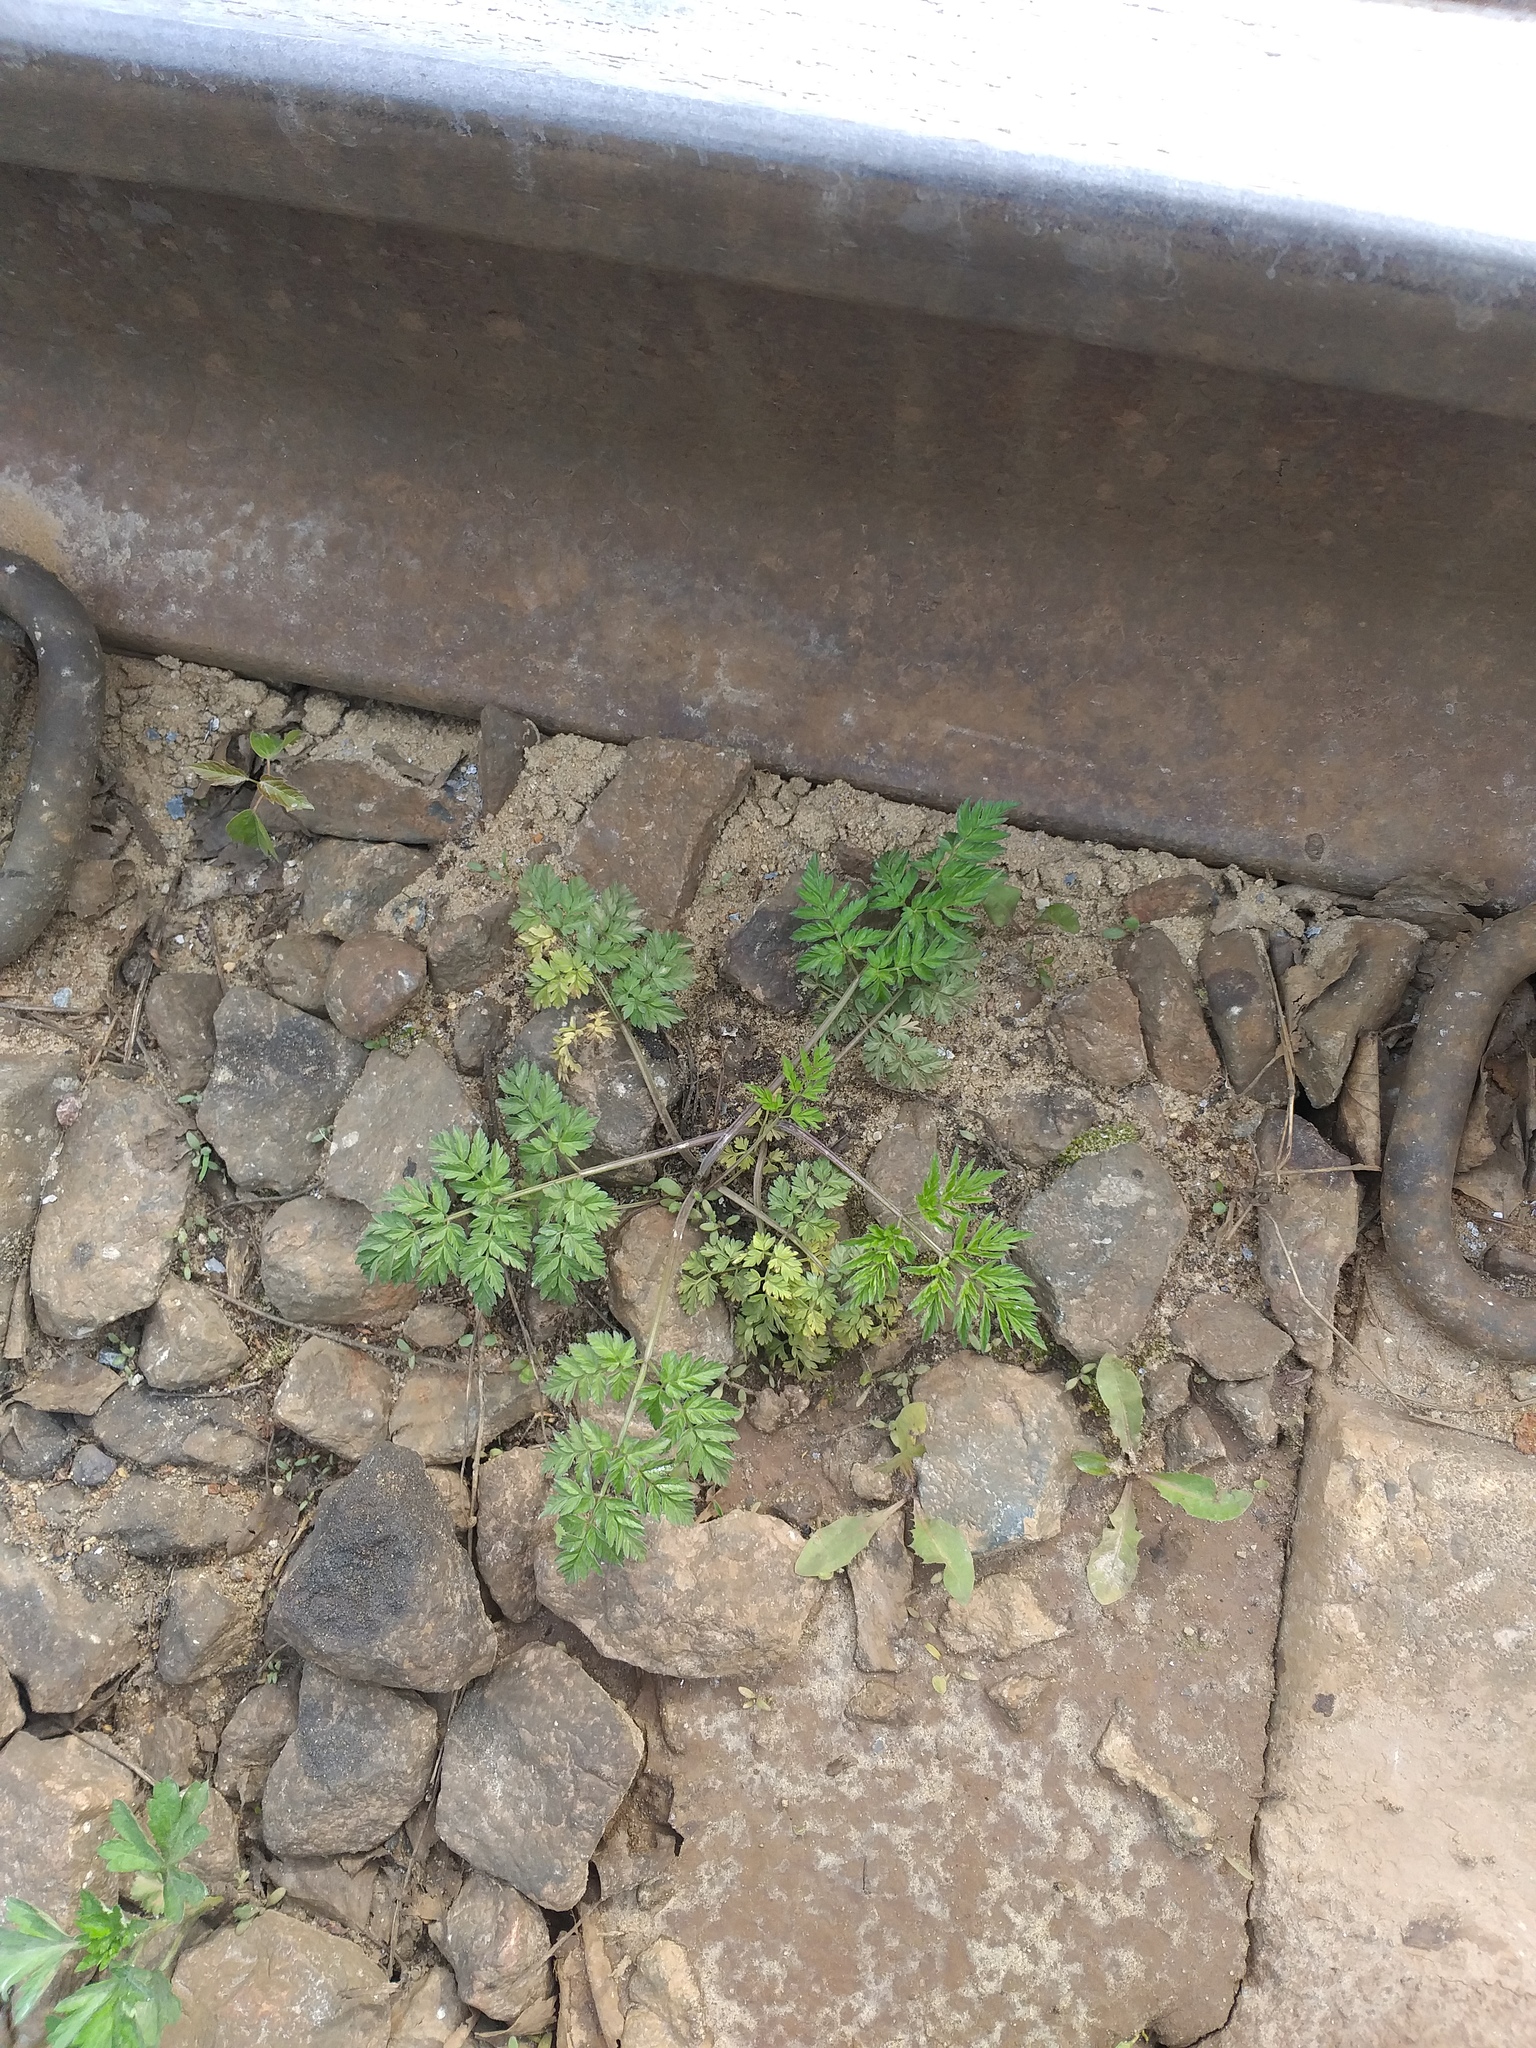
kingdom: Plantae
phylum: Tracheophyta
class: Magnoliopsida
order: Apiales
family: Apiaceae
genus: Anthriscus
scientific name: Anthriscus sylvestris
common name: Cow parsley
